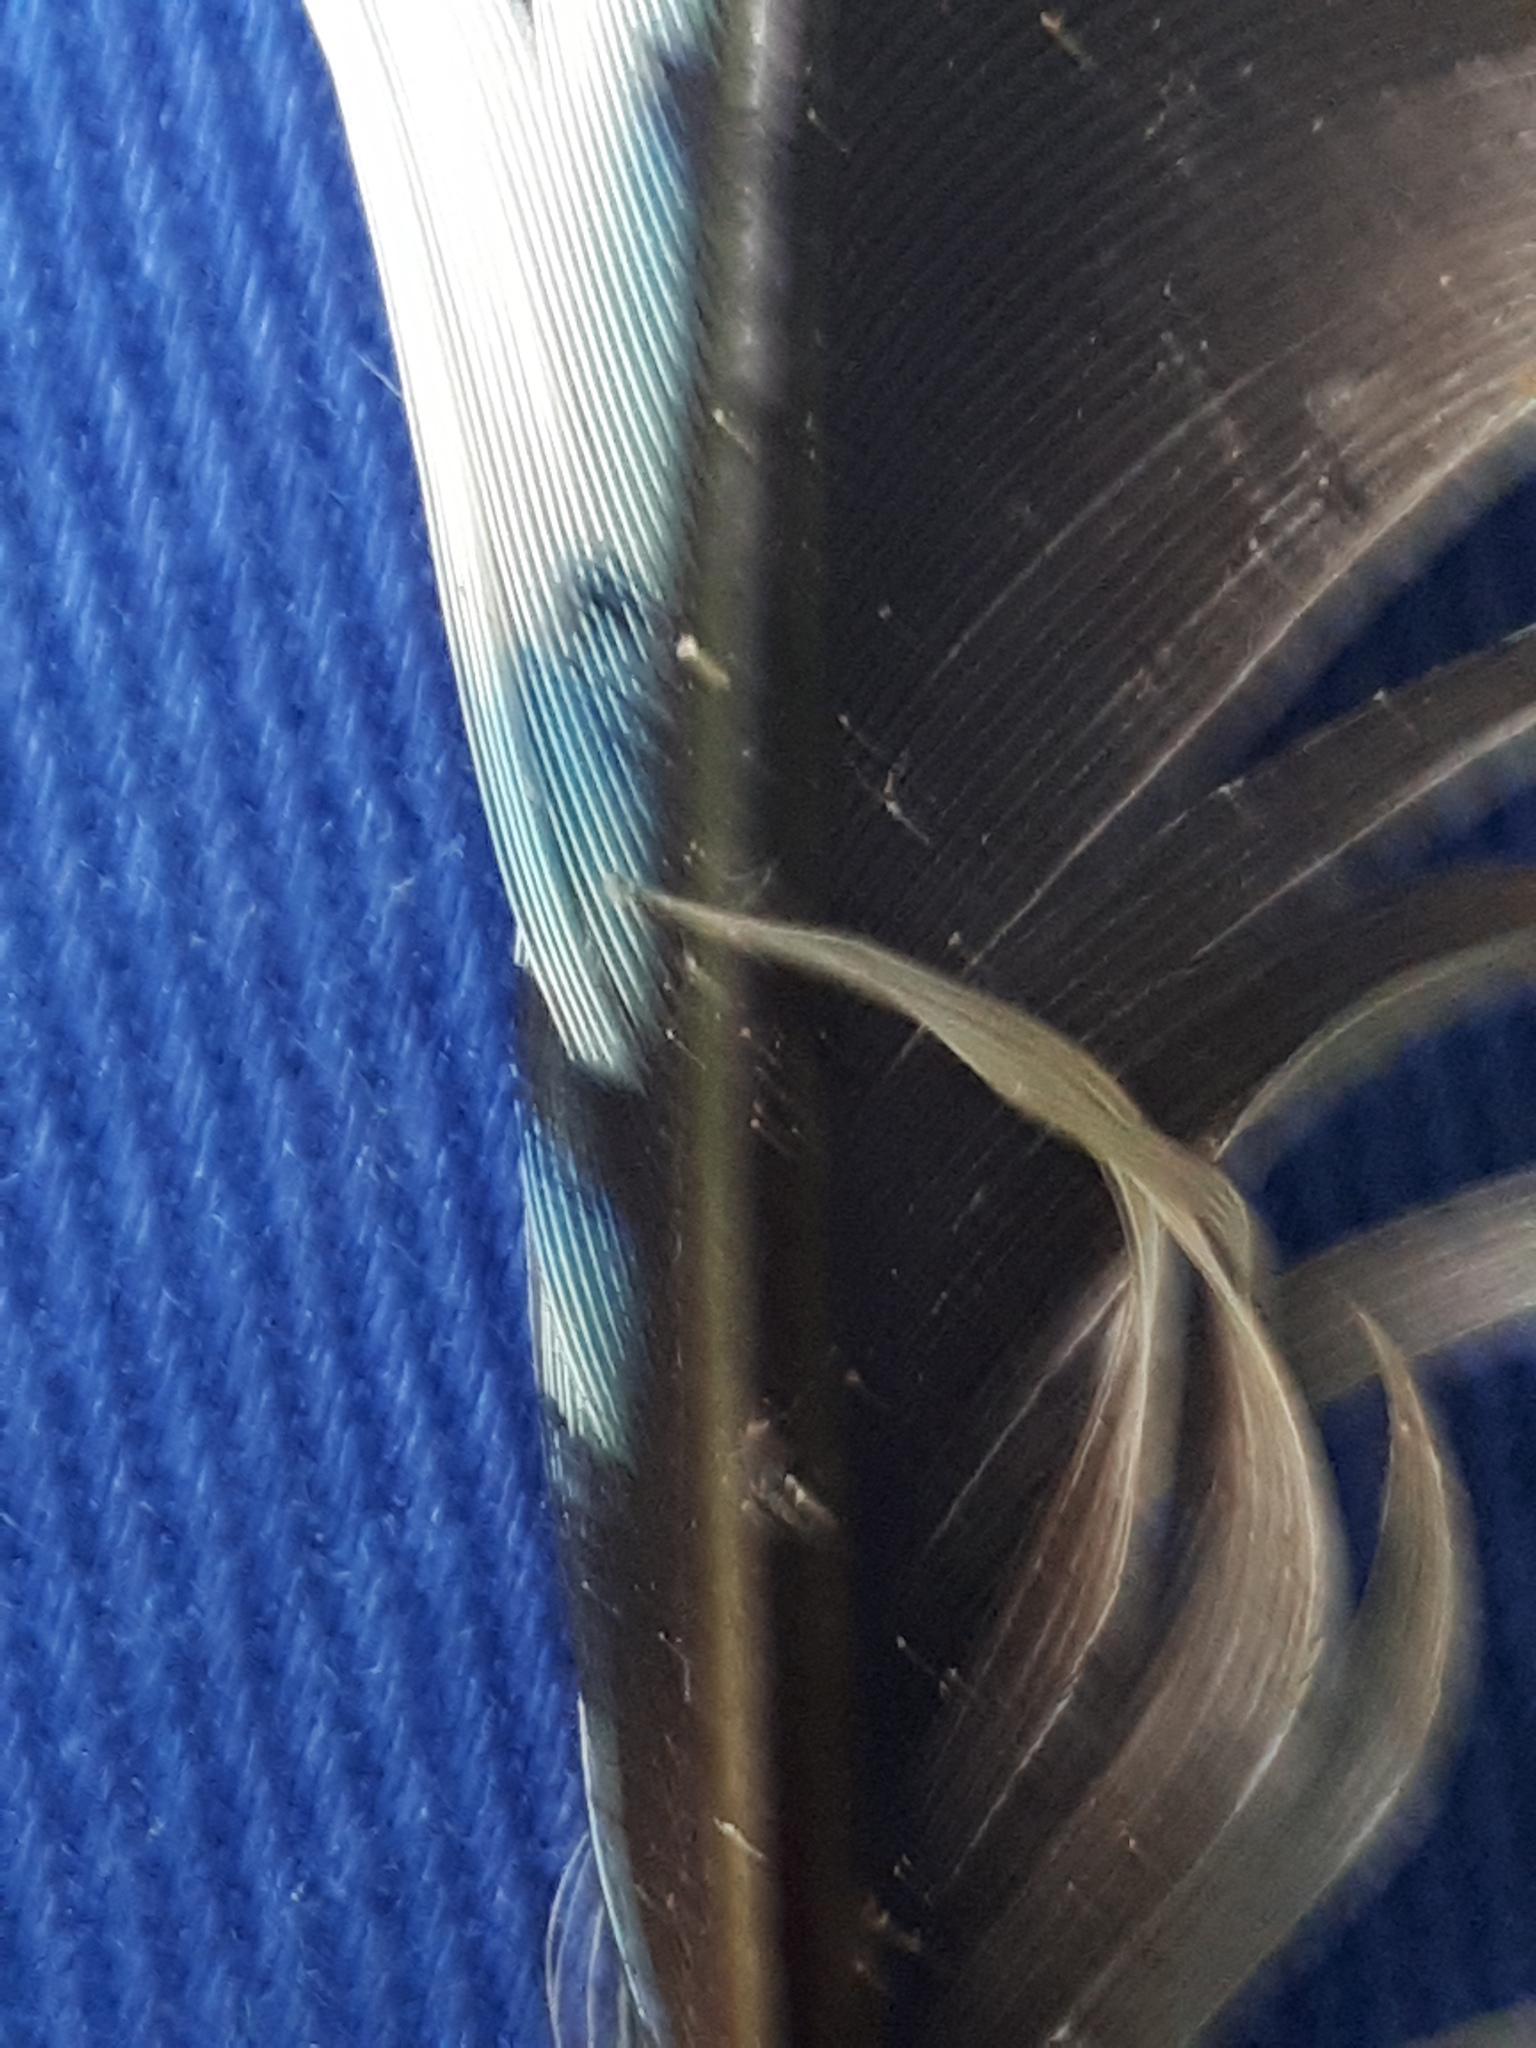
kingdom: Animalia
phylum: Chordata
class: Aves
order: Passeriformes
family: Corvidae
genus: Garrulus
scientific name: Garrulus glandarius
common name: Eurasian jay
